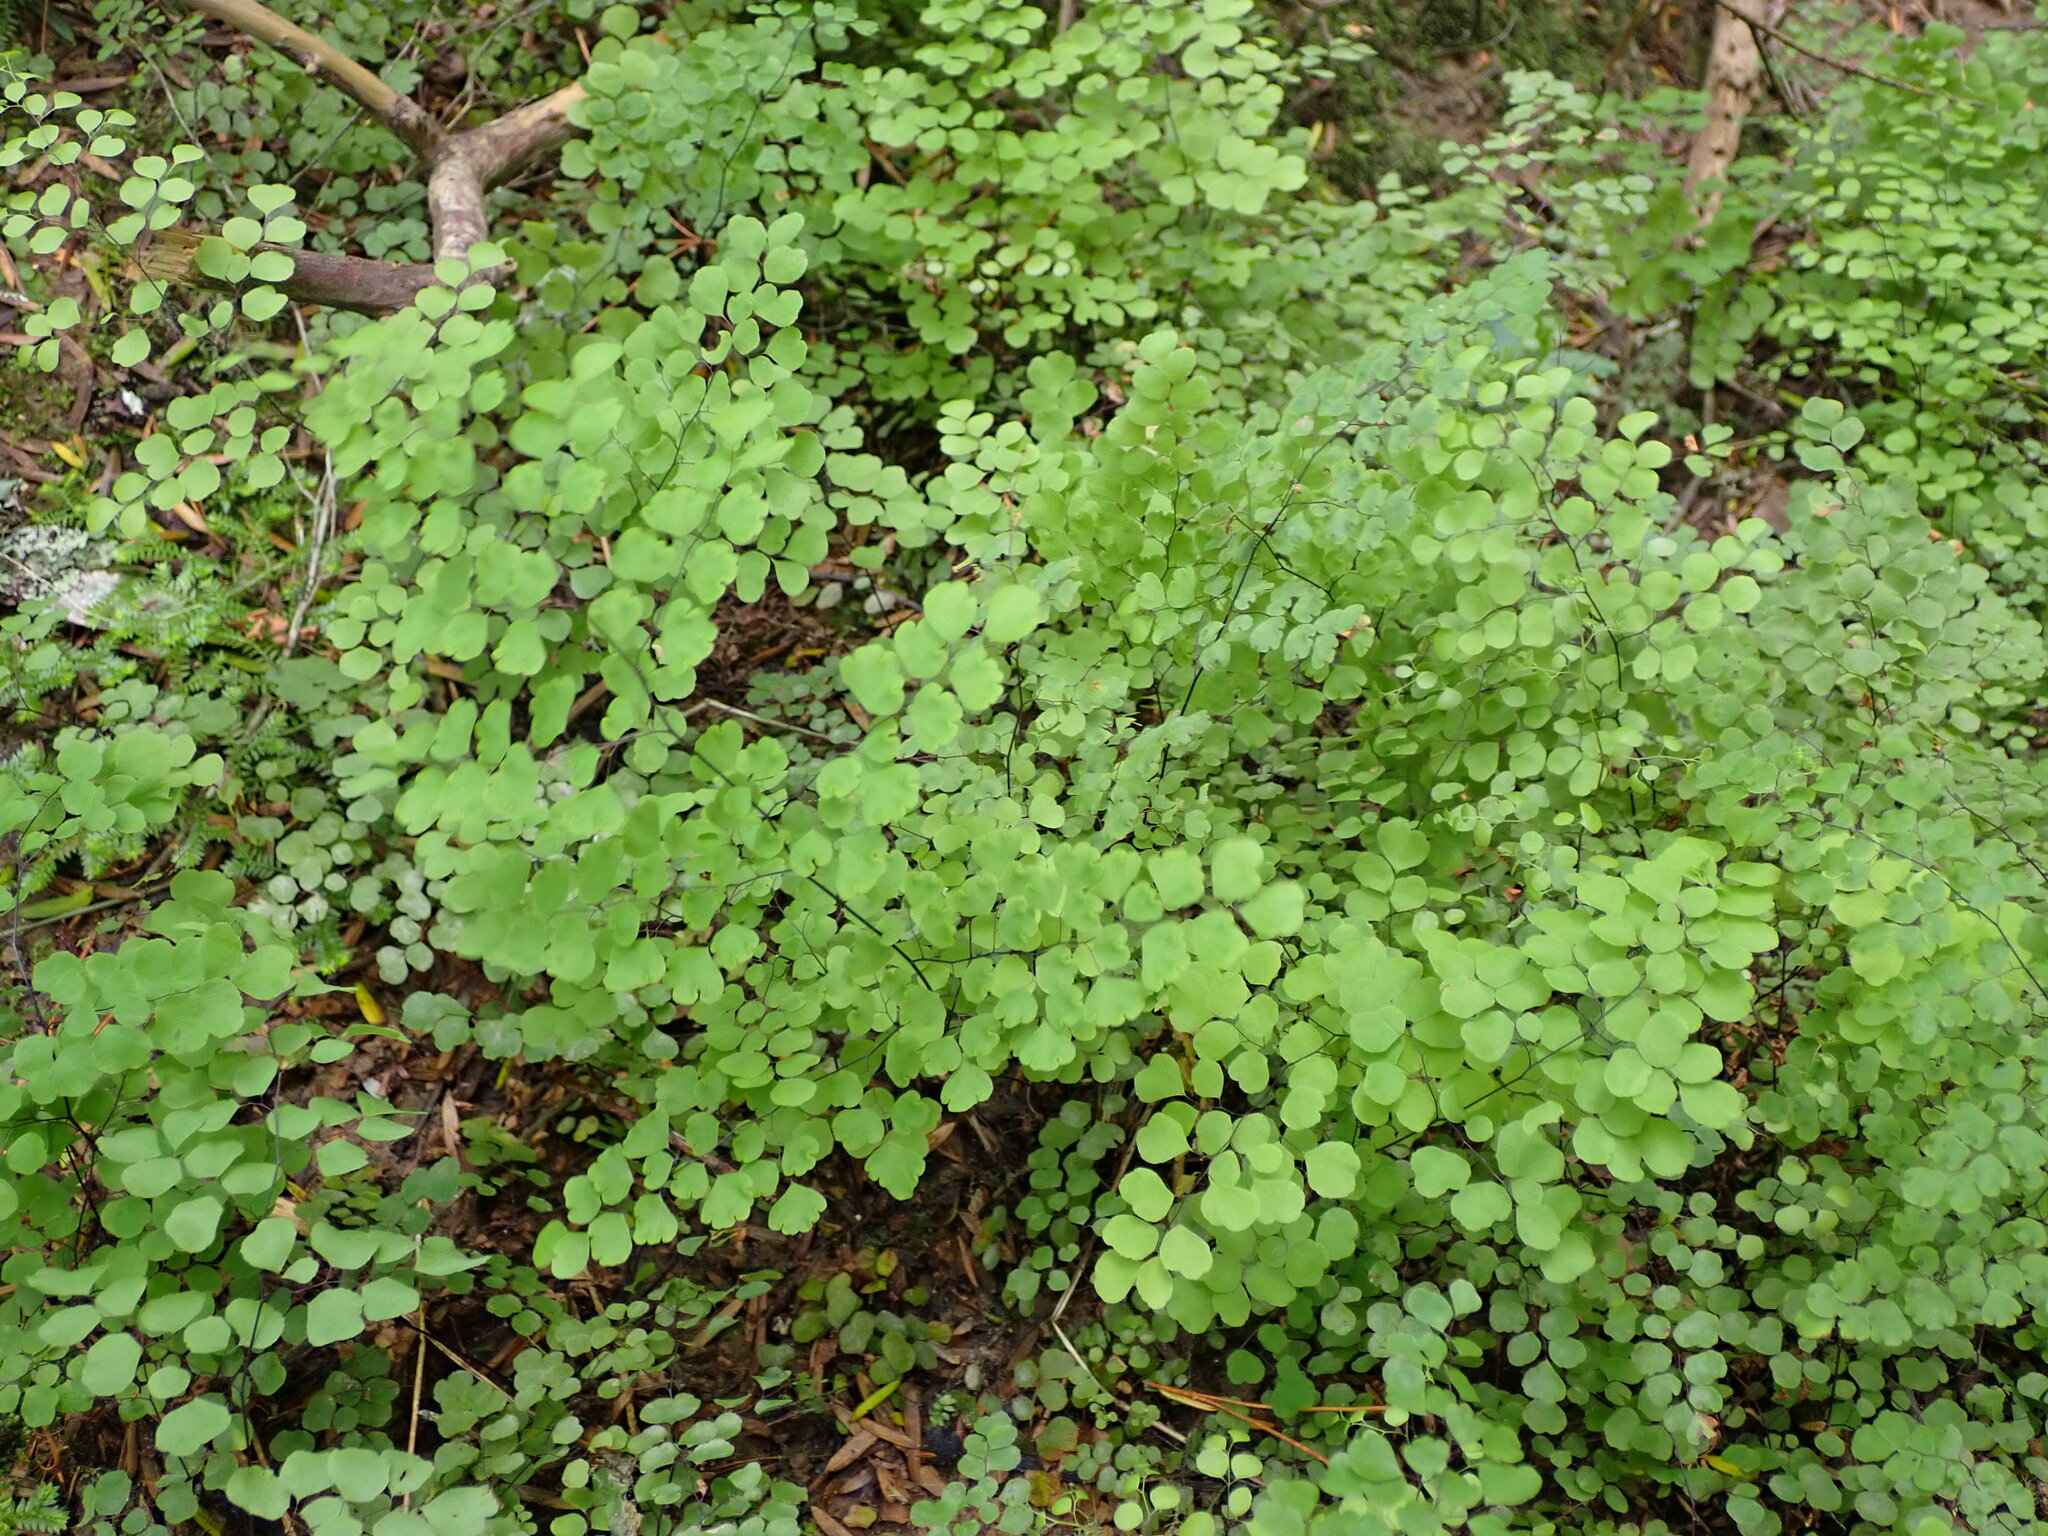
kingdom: Plantae
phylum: Tracheophyta
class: Polypodiopsida
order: Polypodiales
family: Pteridaceae
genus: Adiantum
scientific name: Adiantum aethiopicum
